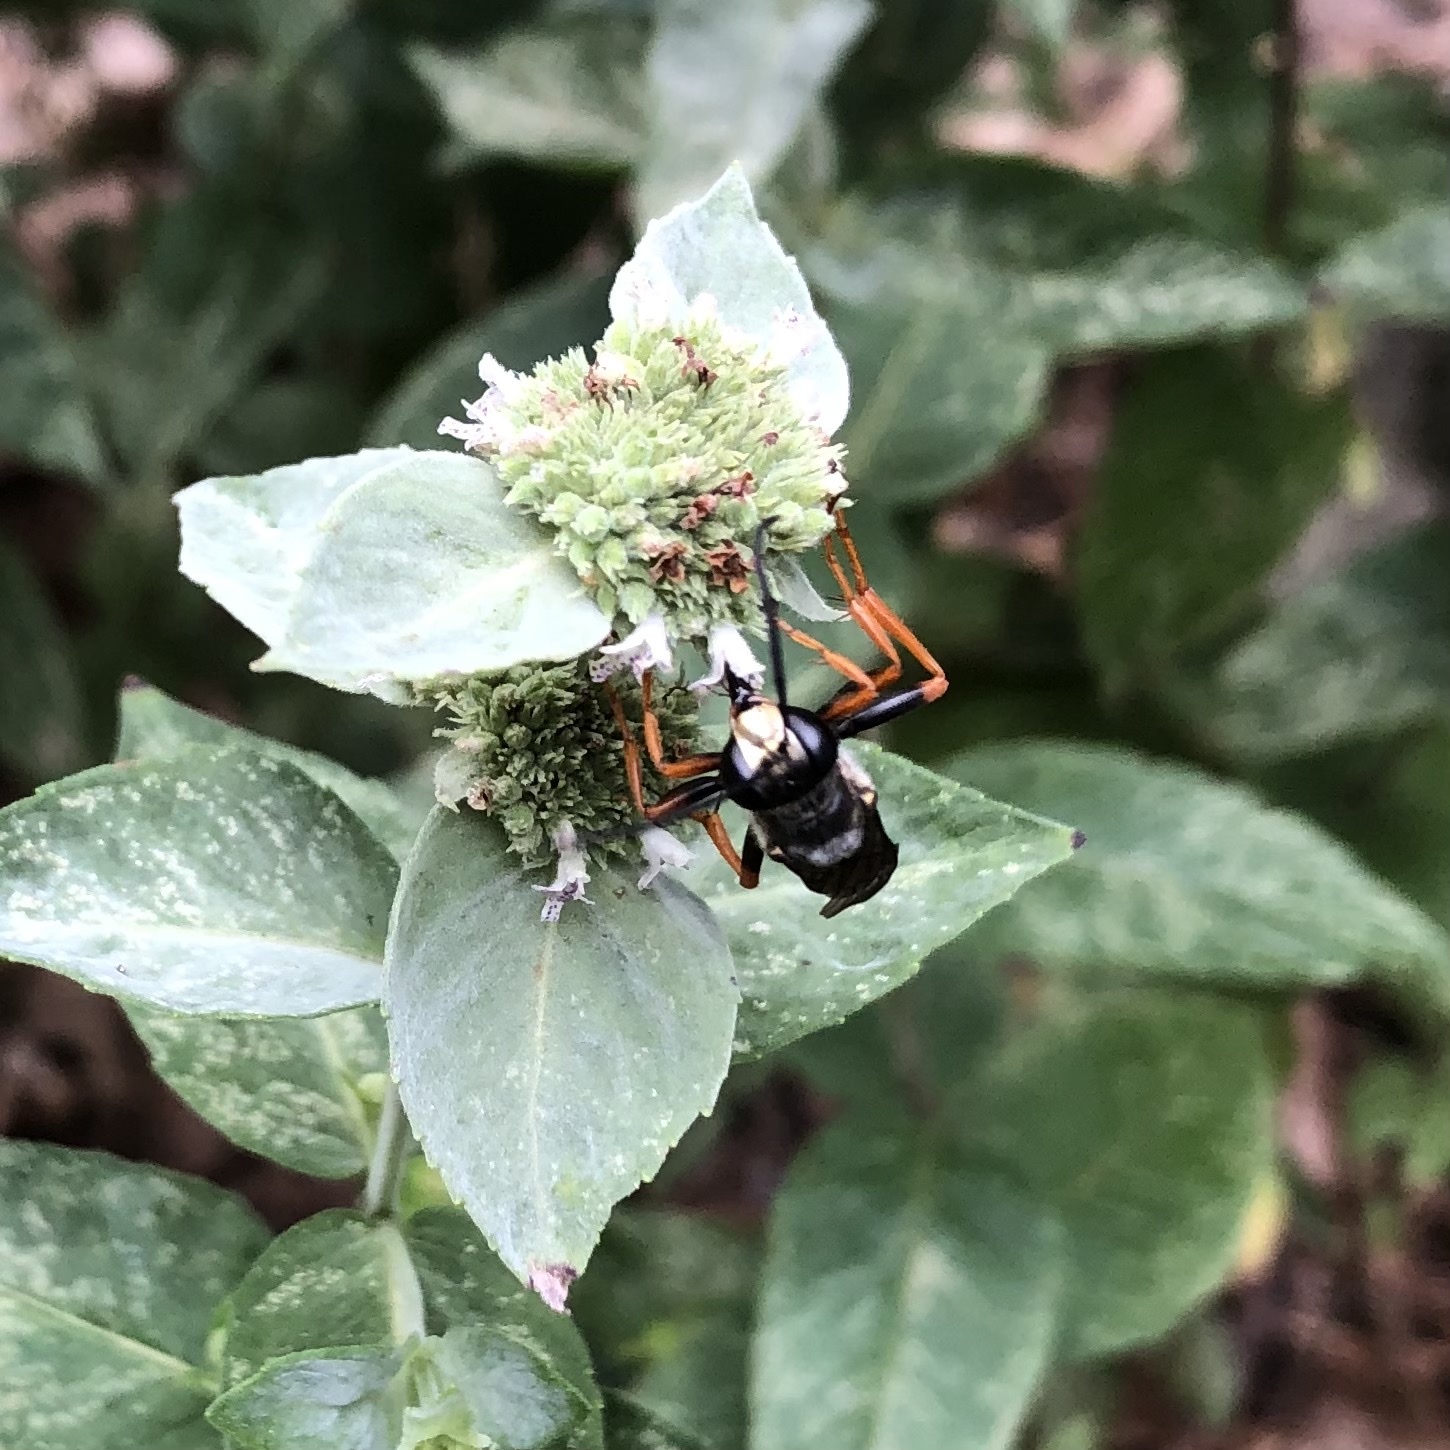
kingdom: Animalia
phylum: Arthropoda
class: Insecta
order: Hymenoptera
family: Sphecidae
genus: Sphex
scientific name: Sphex nudus
